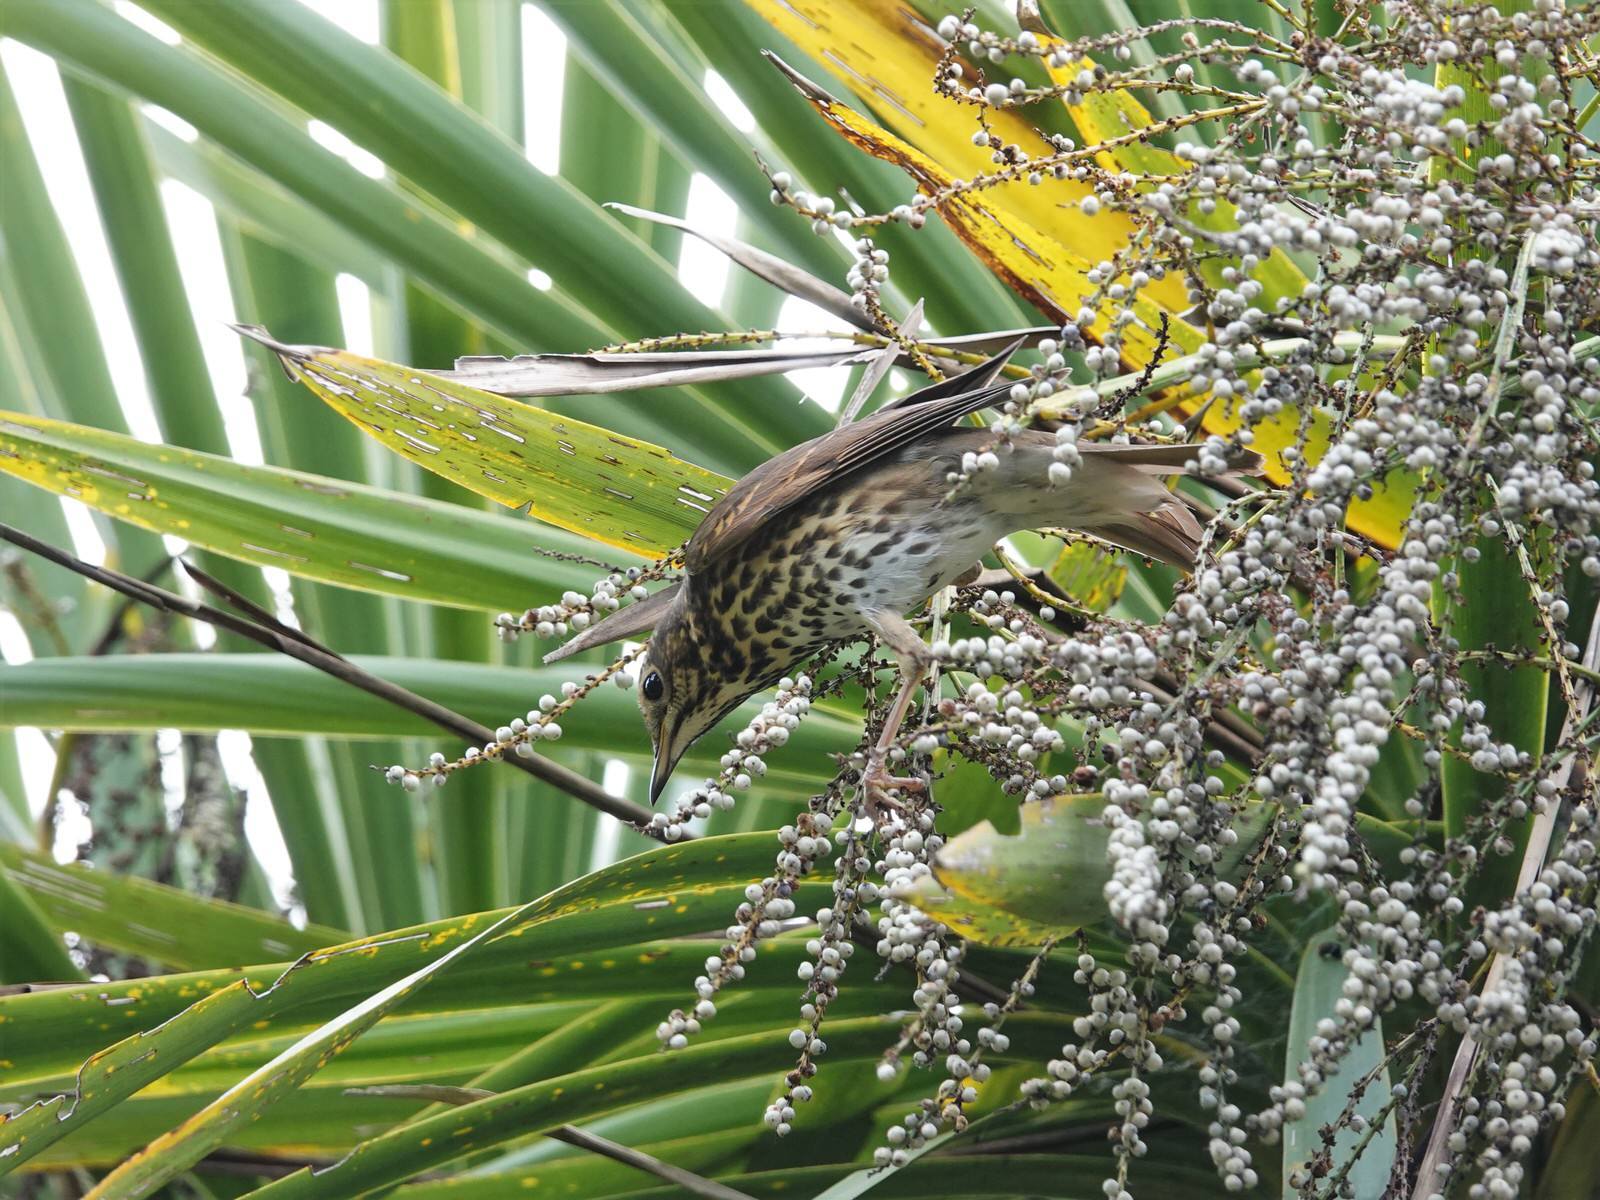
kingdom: Animalia
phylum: Chordata
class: Aves
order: Passeriformes
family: Turdidae
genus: Turdus
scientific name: Turdus philomelos
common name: Song thrush
